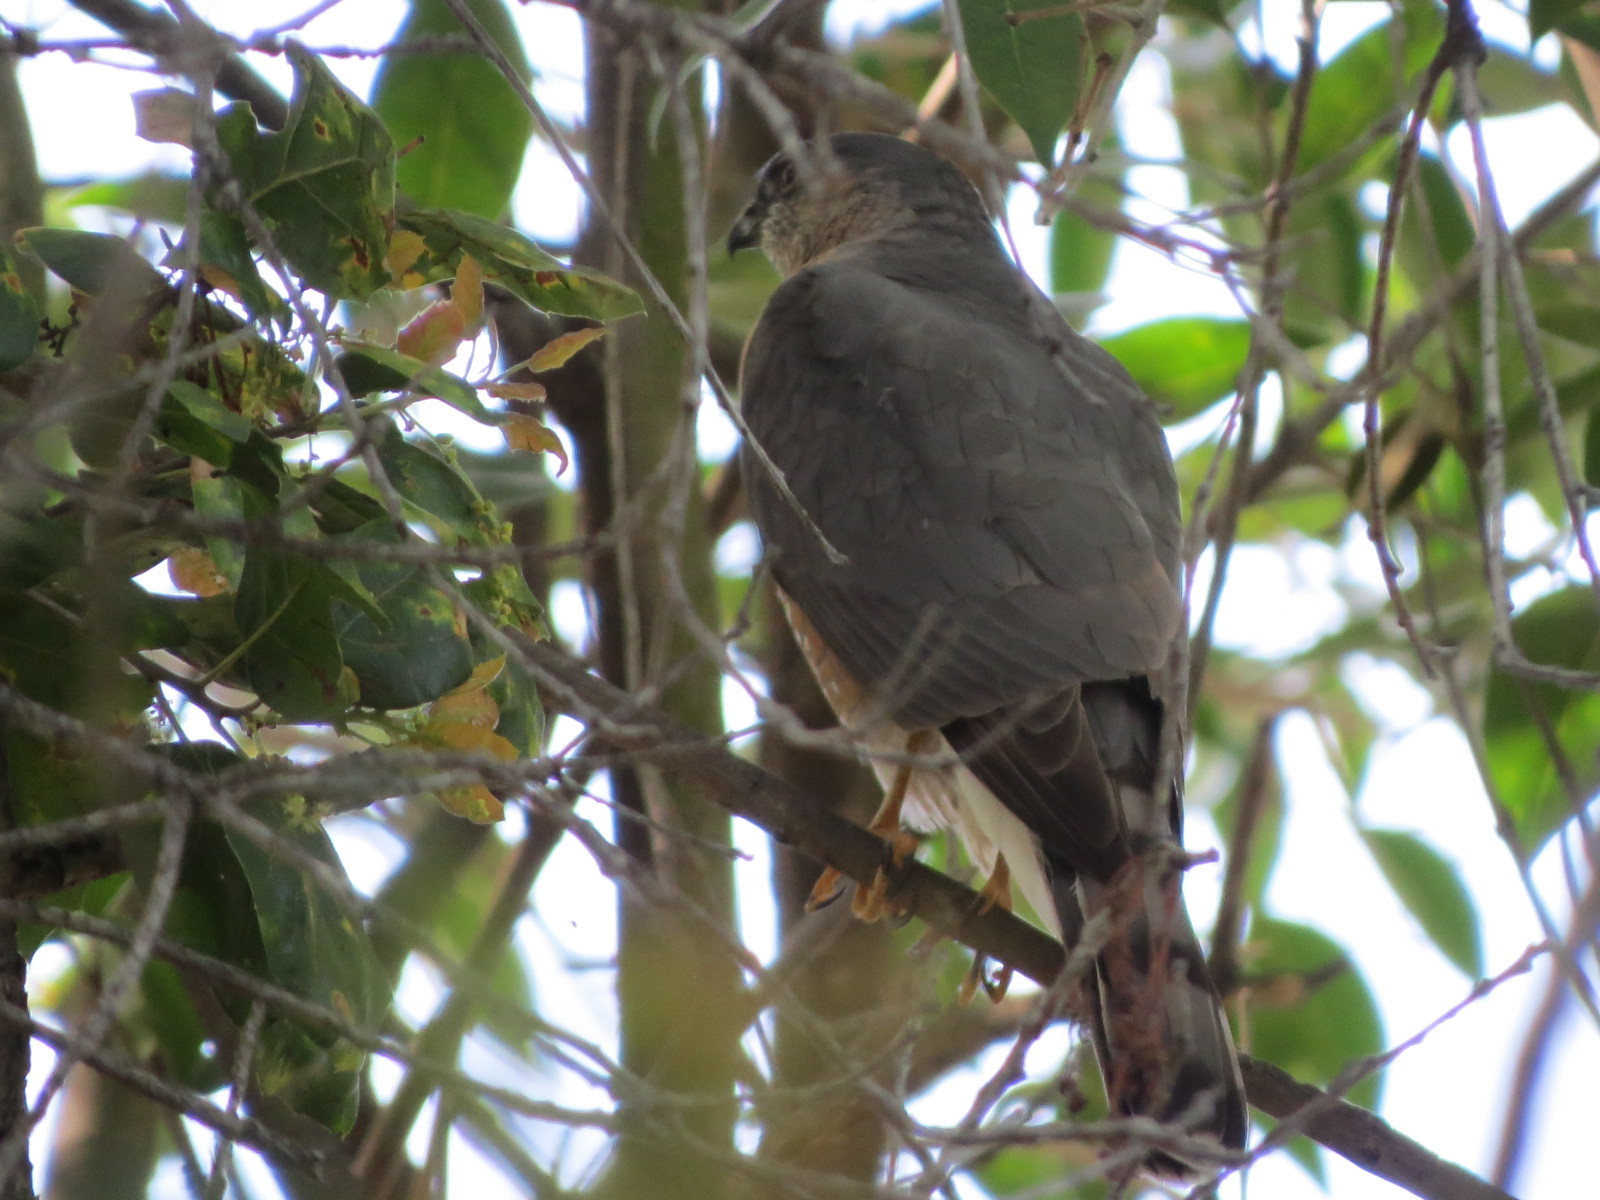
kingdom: Animalia
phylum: Chordata
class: Aves
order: Accipitriformes
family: Accipitridae
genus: Accipiter
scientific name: Accipiter striatus
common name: Sharp-shinned hawk
